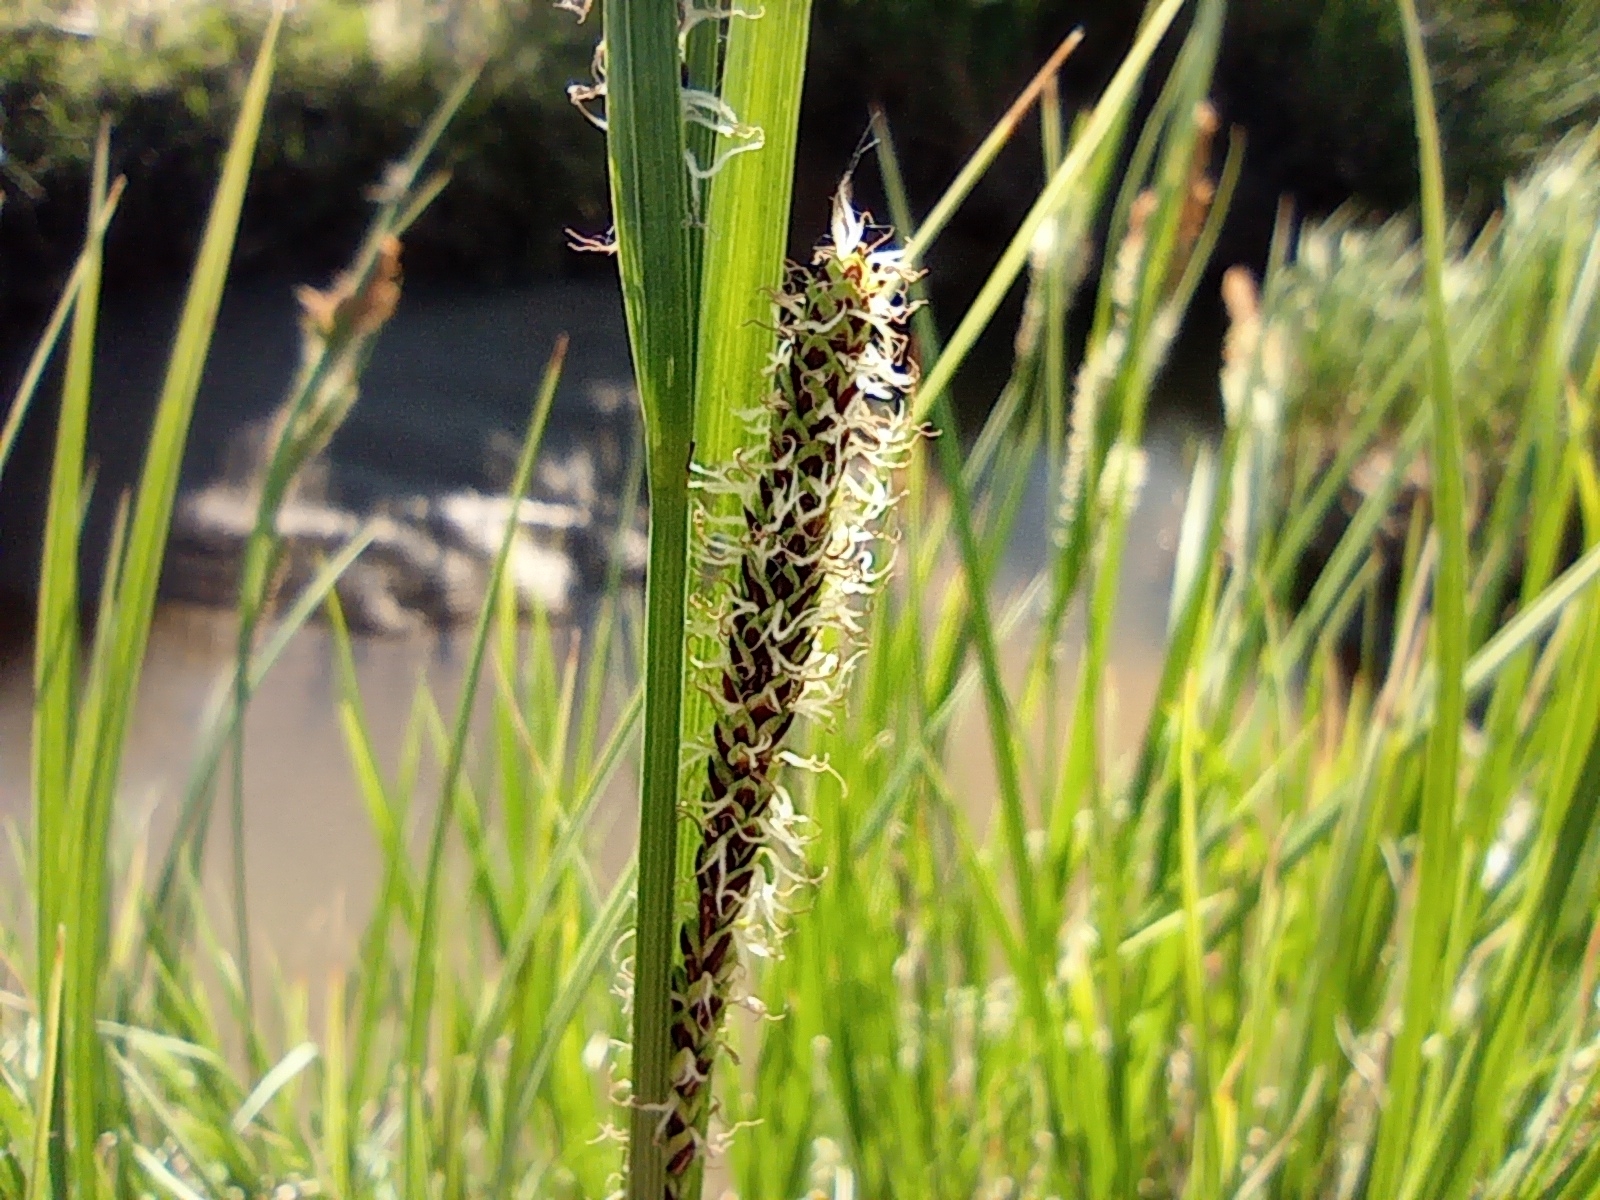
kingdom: Plantae
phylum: Tracheophyta
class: Liliopsida
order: Poales
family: Cyperaceae
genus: Carex
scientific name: Carex aquatilis
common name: Water sedge
